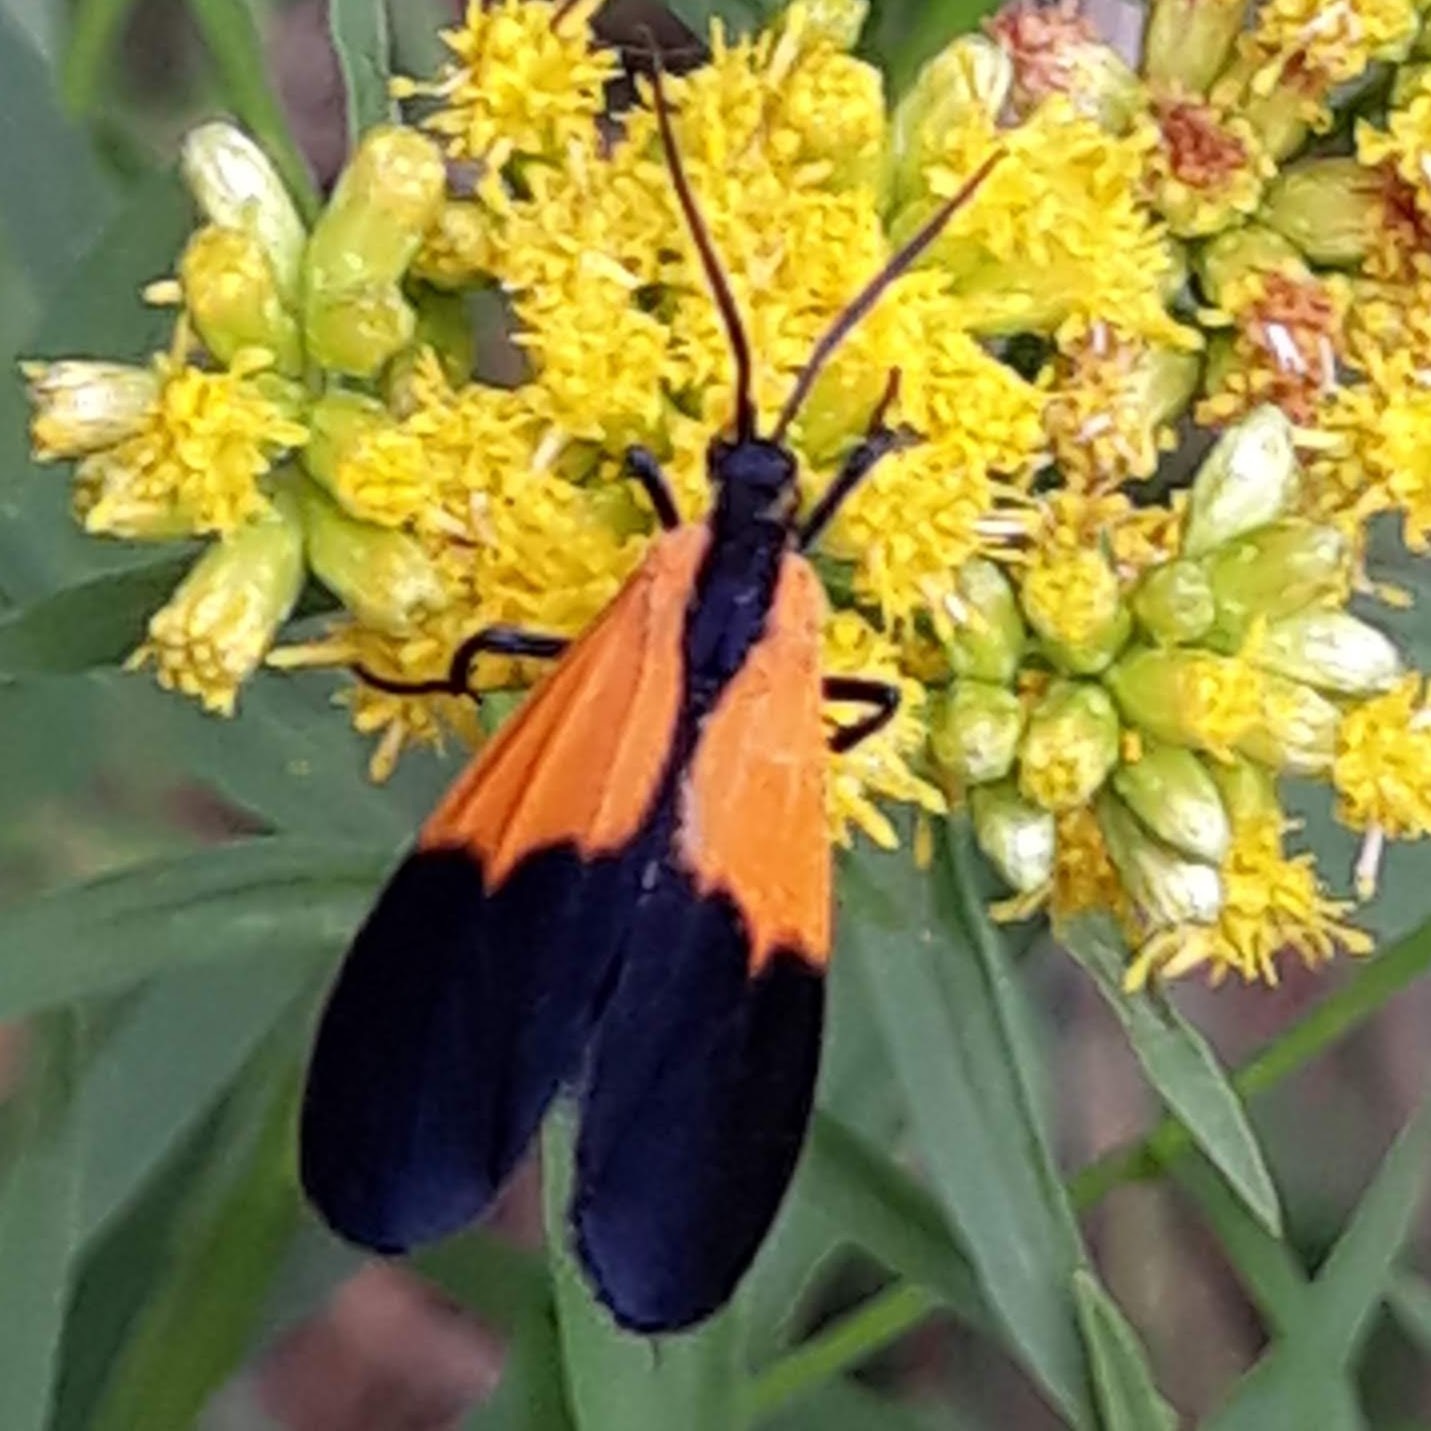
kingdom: Animalia
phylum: Arthropoda
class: Insecta
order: Lepidoptera
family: Erebidae
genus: Lycomorpha
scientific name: Lycomorpha pholus
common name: Black-and-yellow lichen moth
